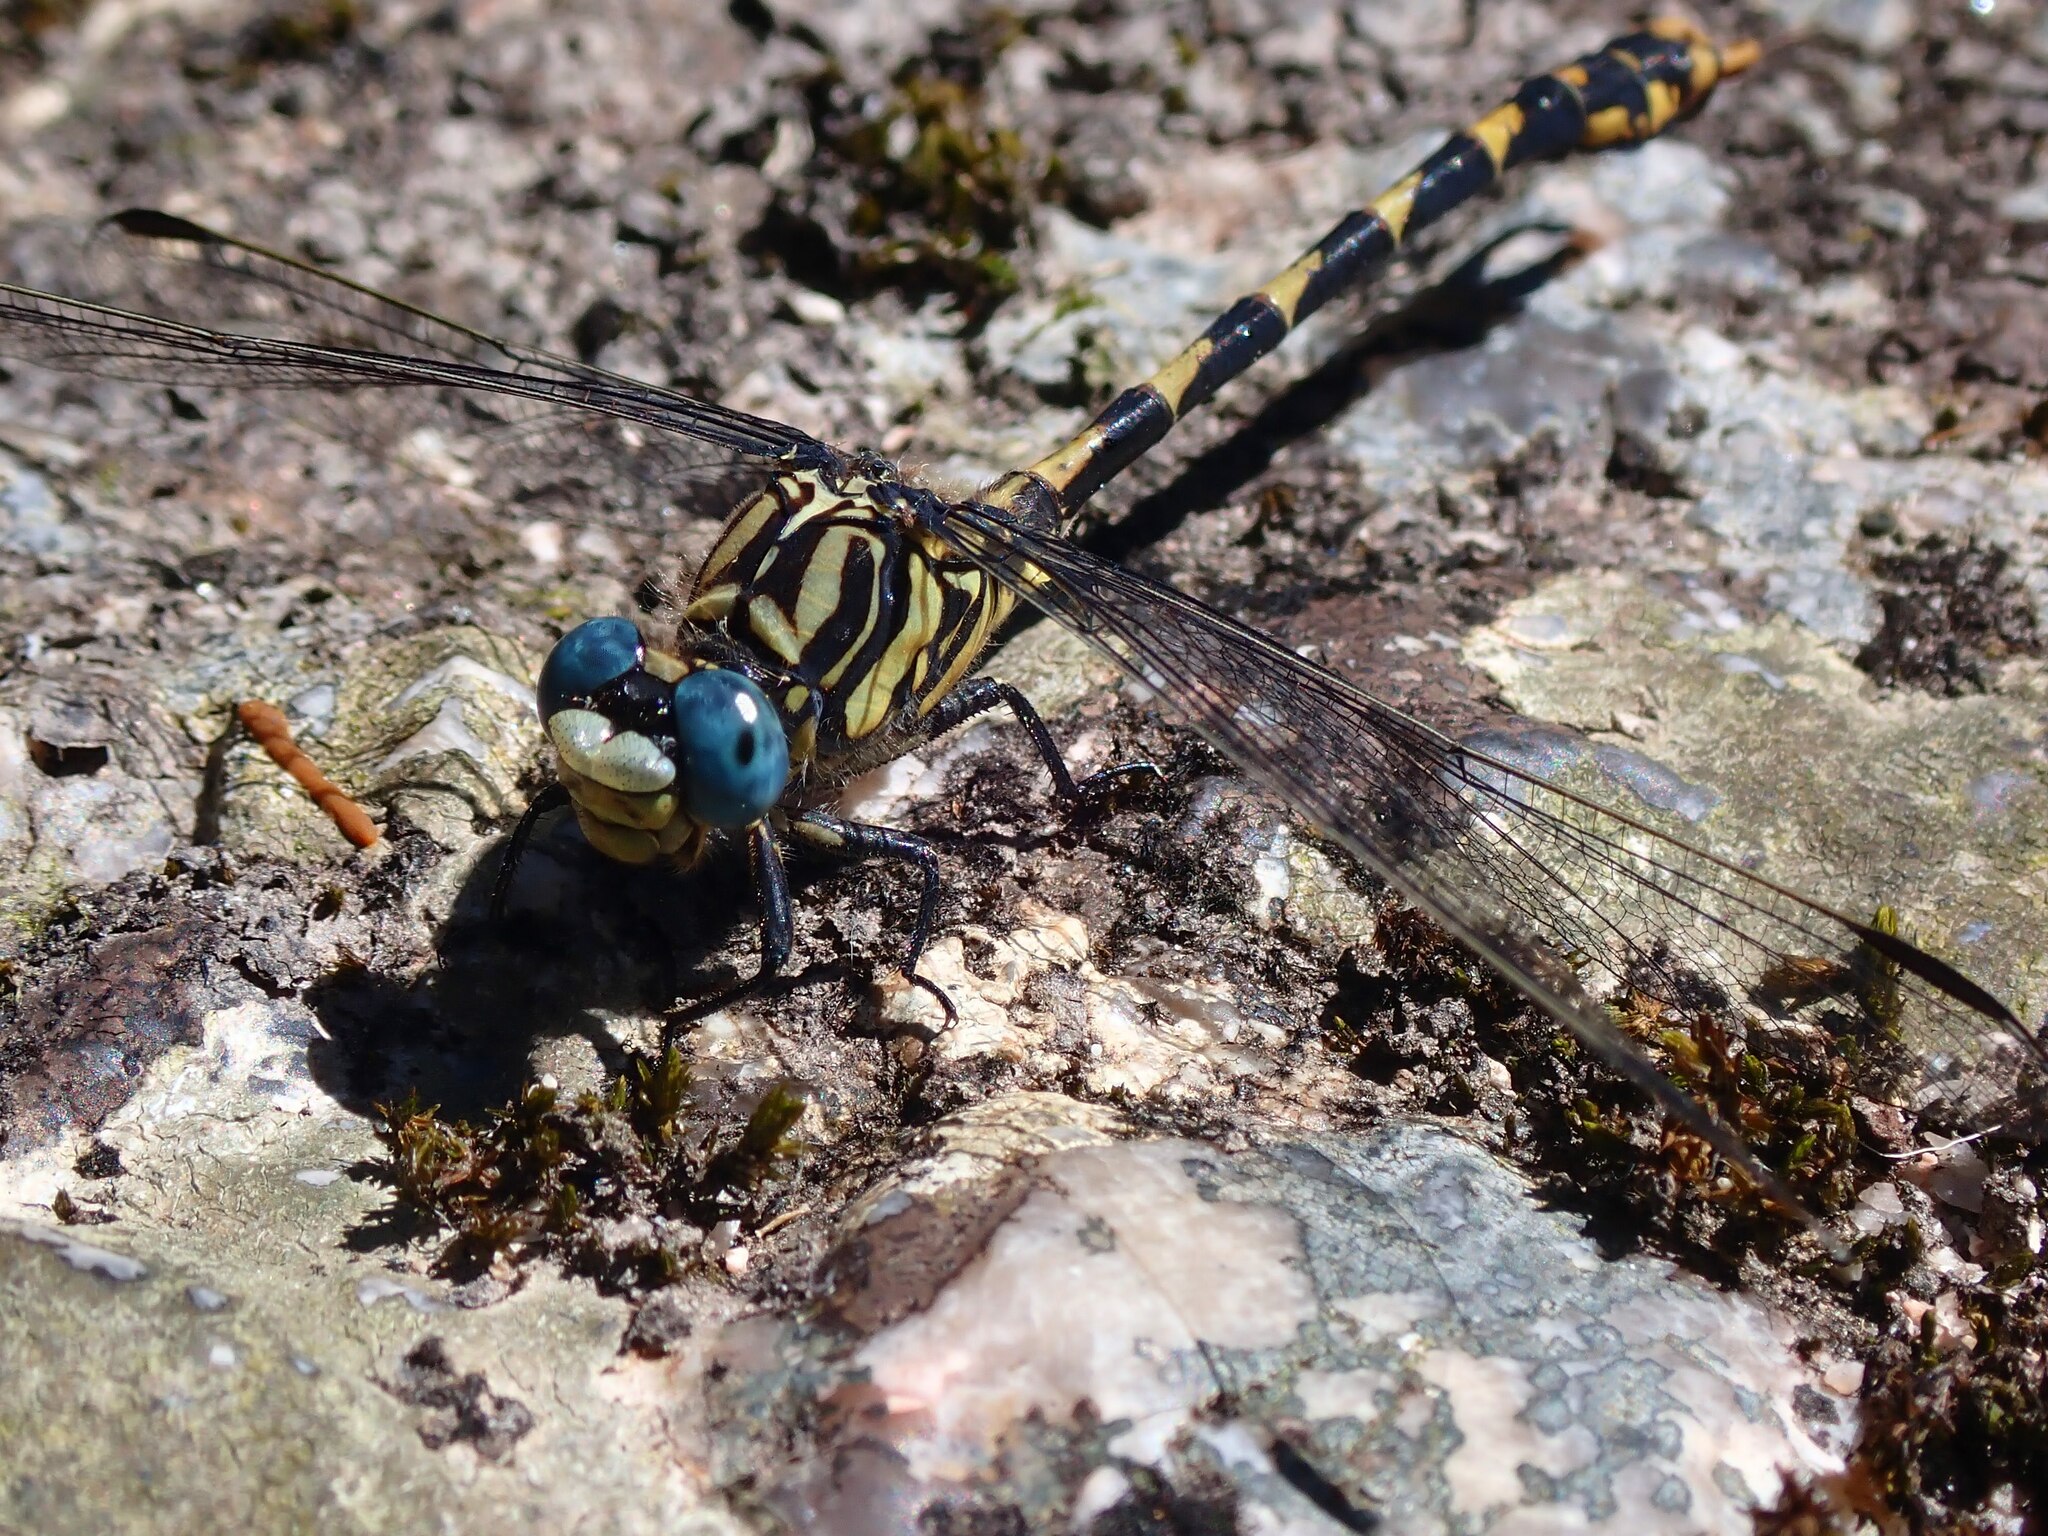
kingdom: Animalia
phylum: Arthropoda
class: Insecta
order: Odonata
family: Gomphidae
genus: Onychogomphus
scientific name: Onychogomphus uncatus
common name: Large pincertail
